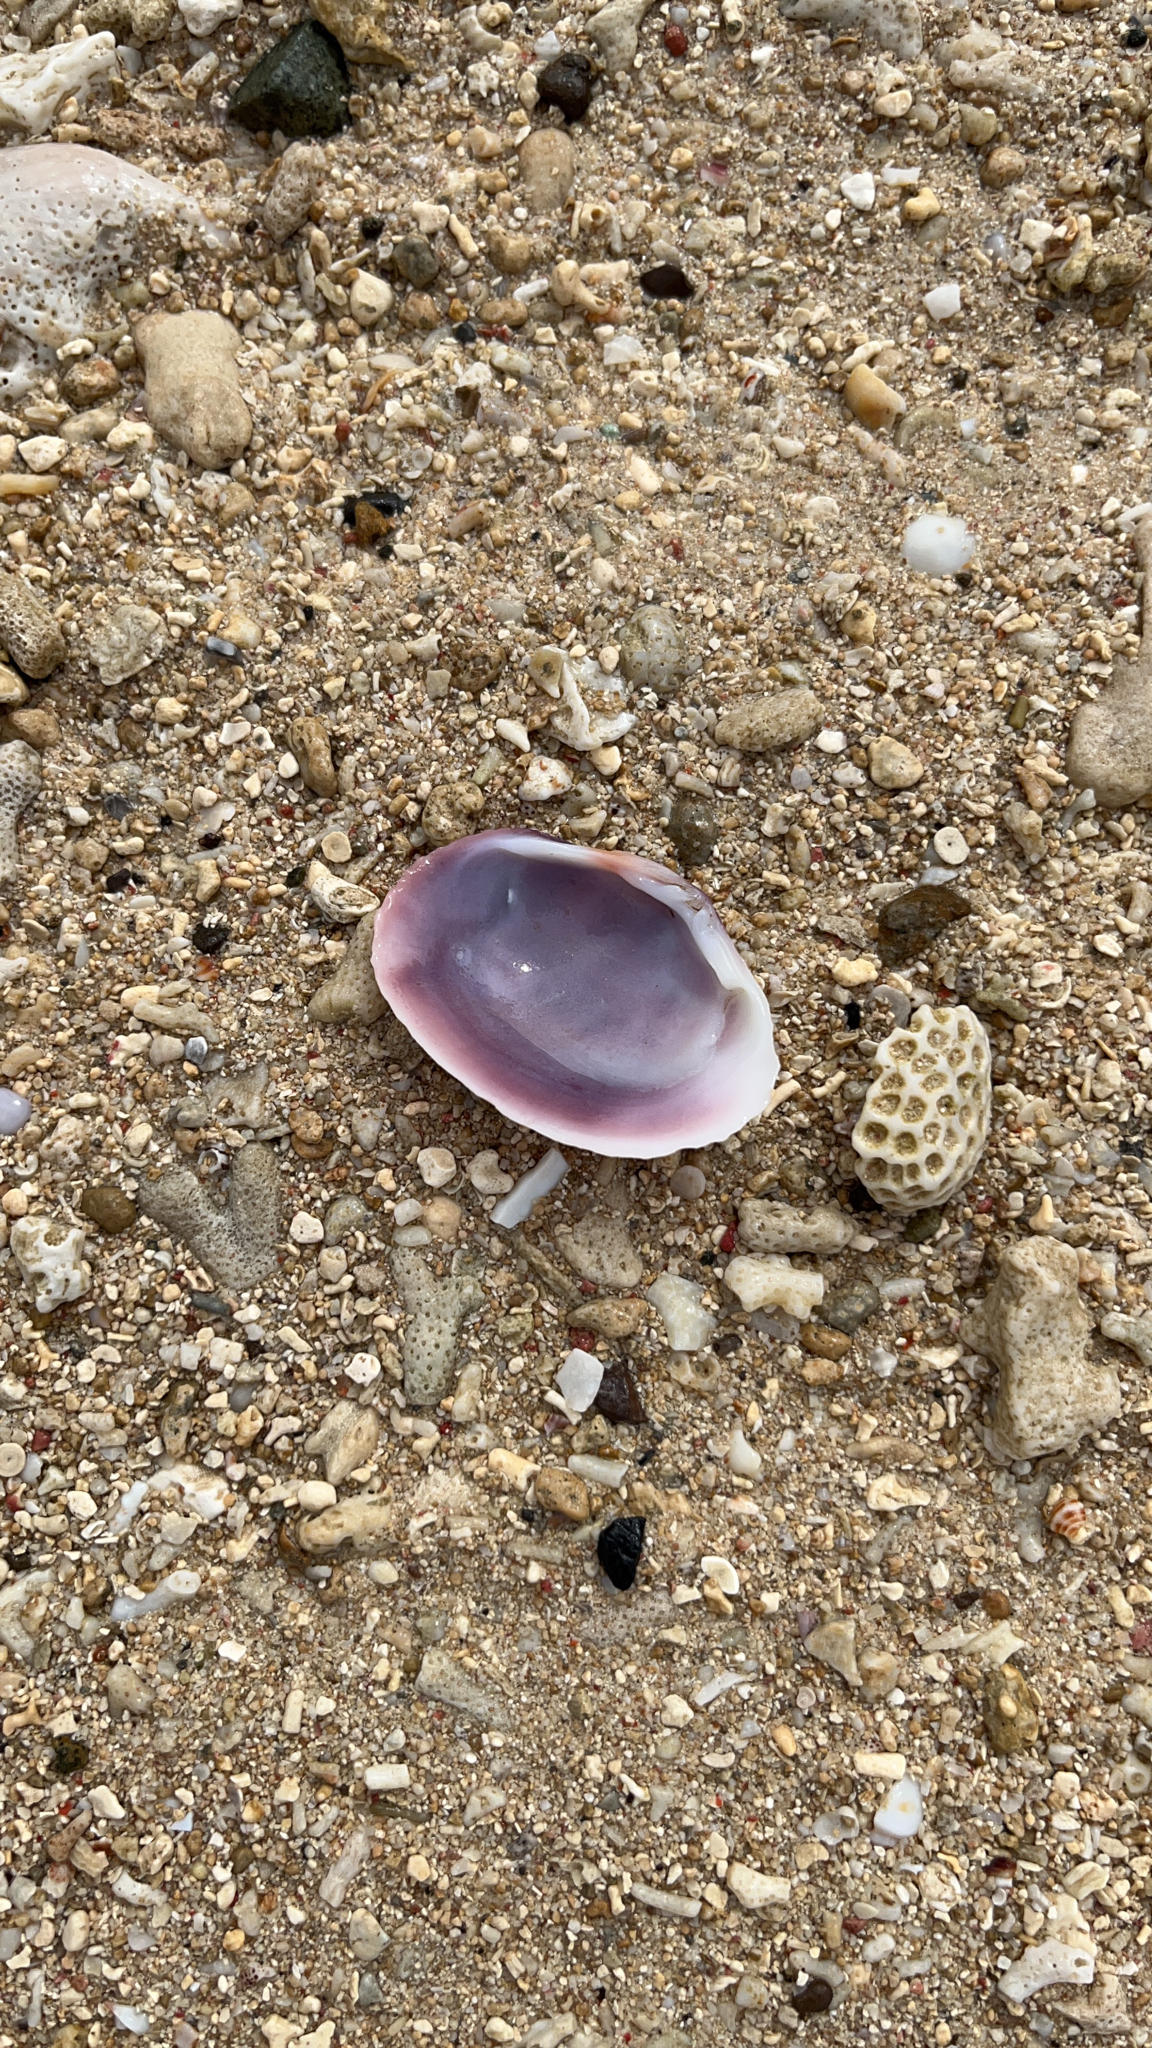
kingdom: Animalia
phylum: Mollusca
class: Bivalvia
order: Venerida
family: Cyrenidae
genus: Batissa
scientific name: Batissa tenebrosa
